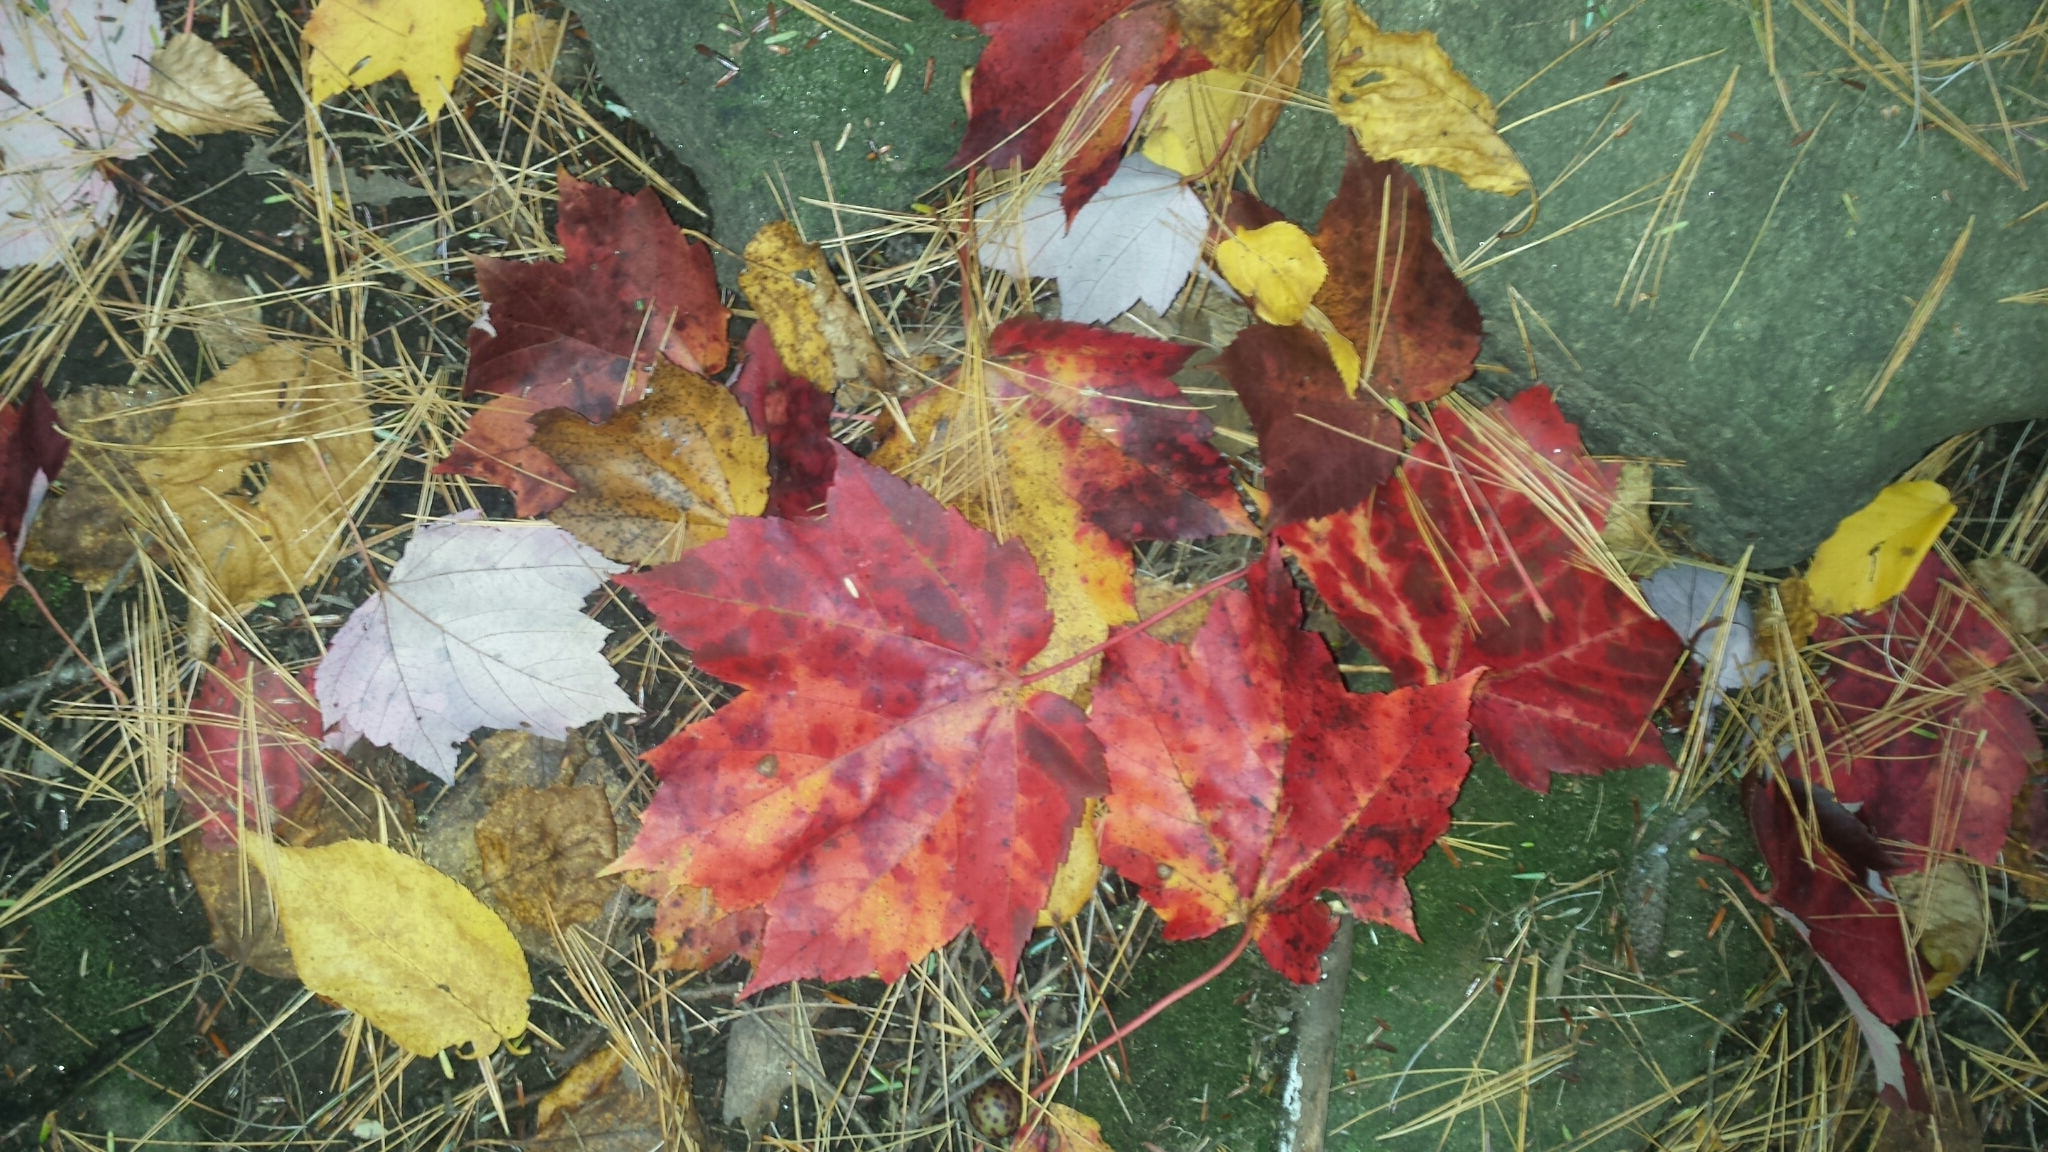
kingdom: Plantae
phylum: Tracheophyta
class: Magnoliopsida
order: Sapindales
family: Sapindaceae
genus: Acer
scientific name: Acer rubrum
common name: Red maple
